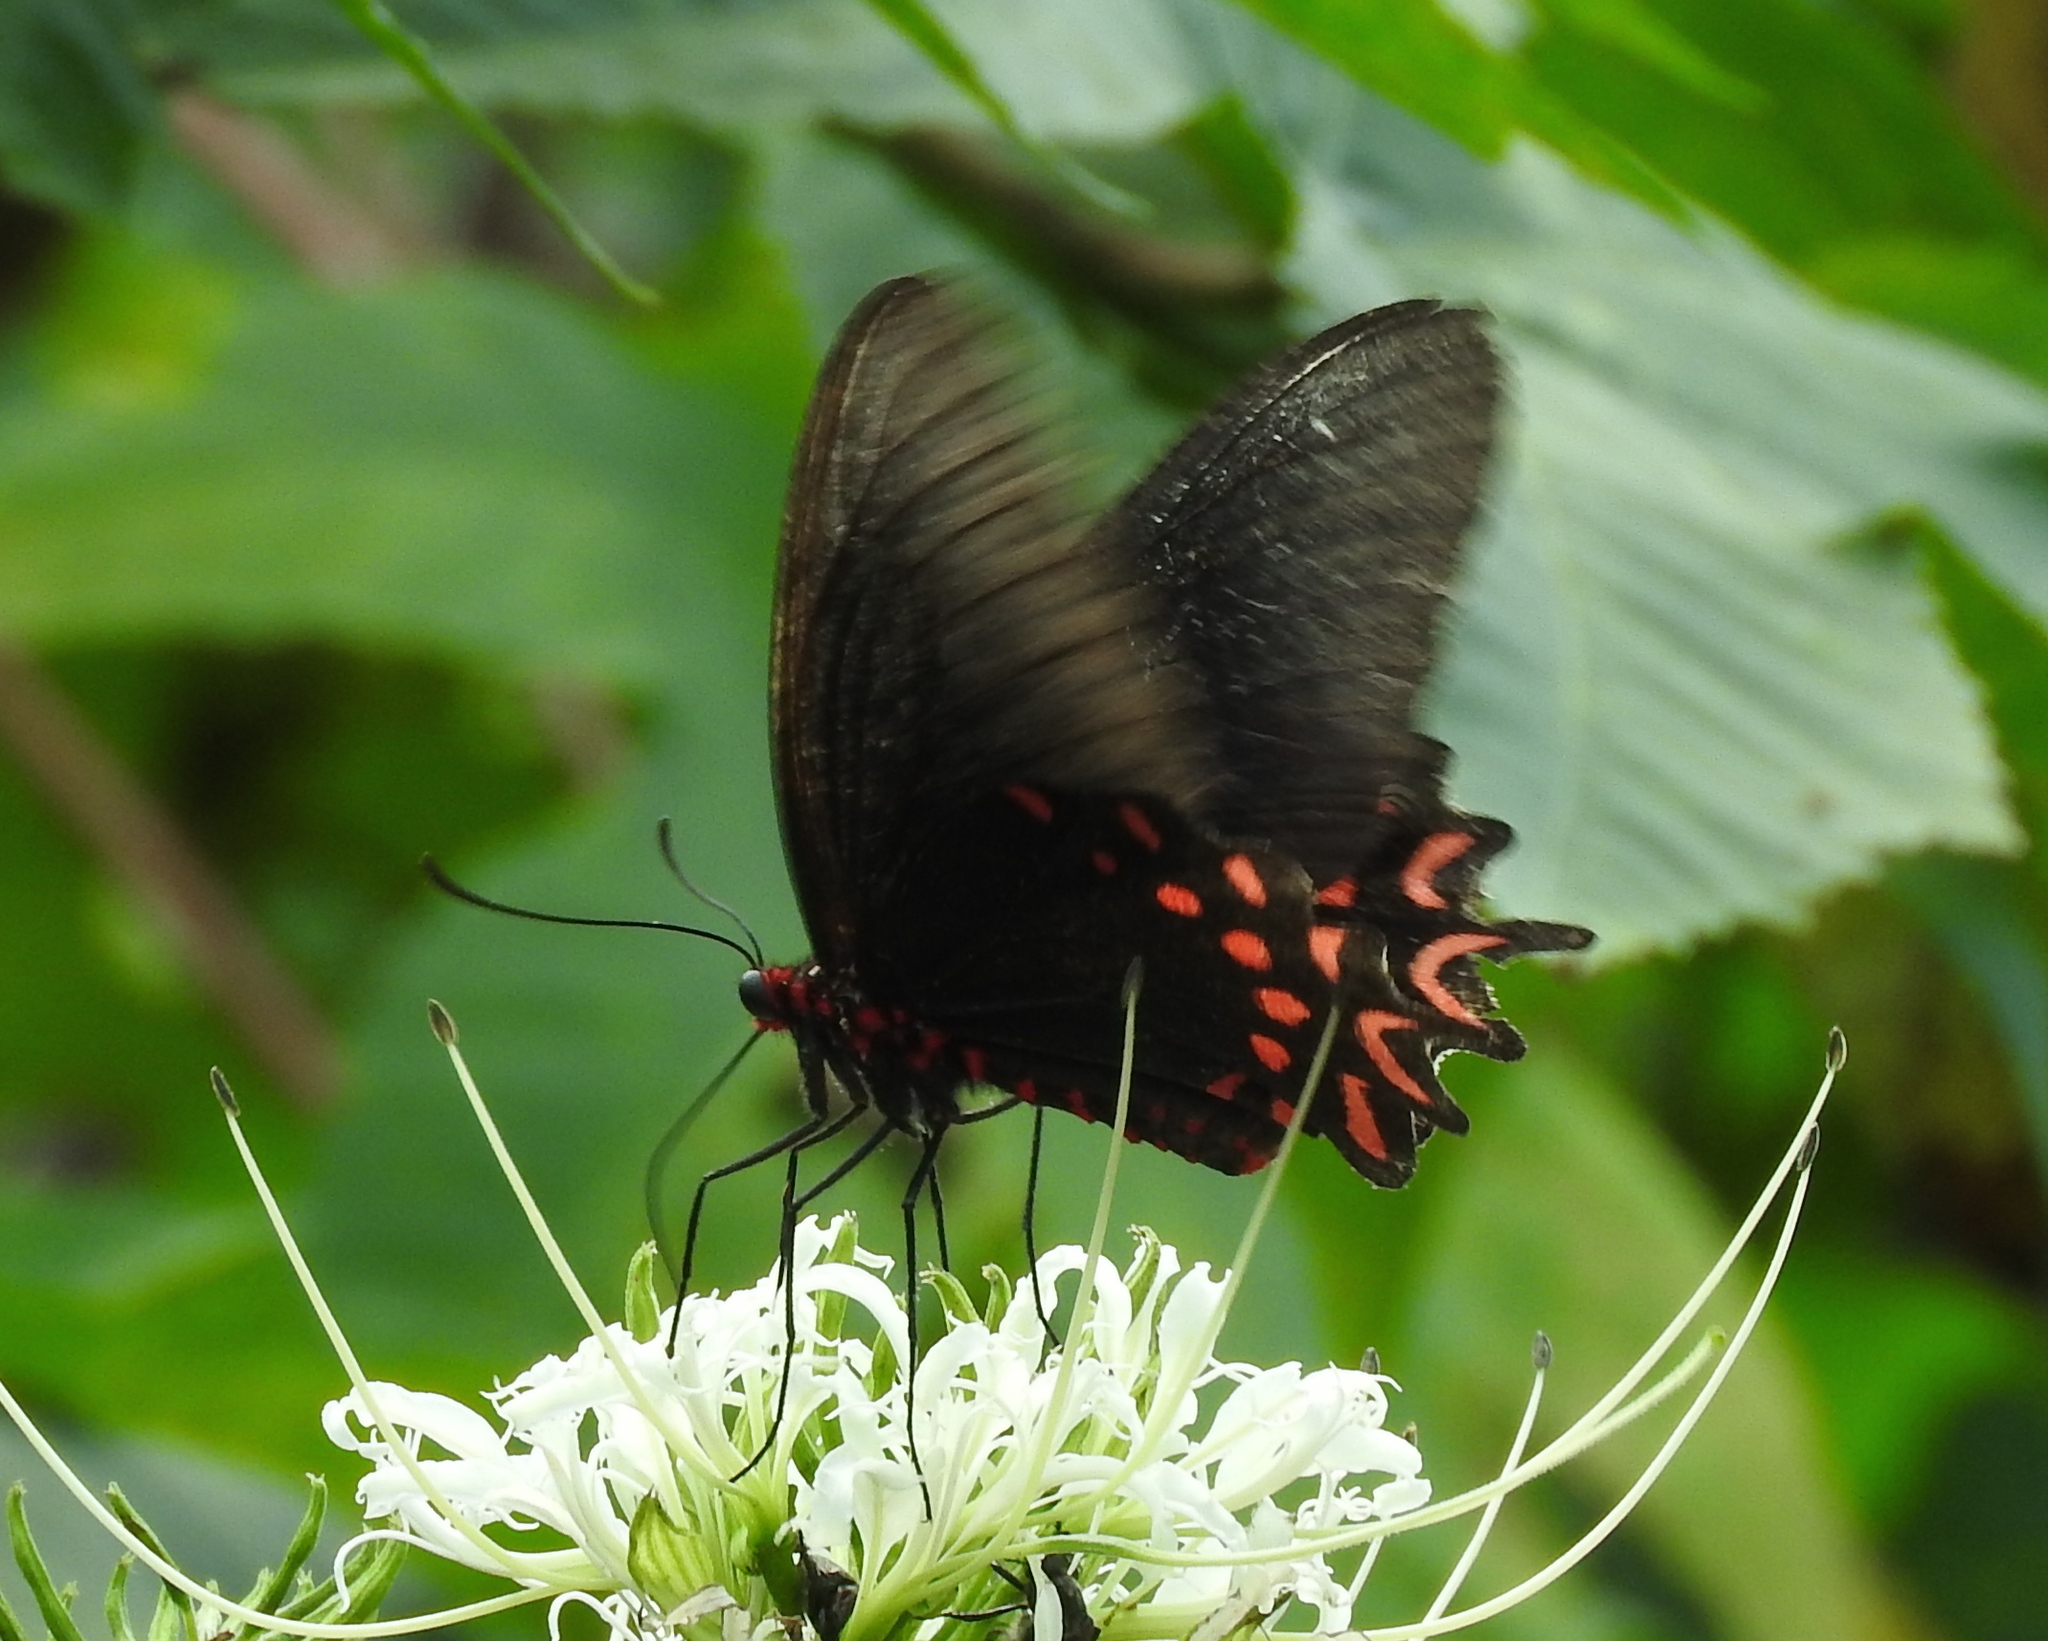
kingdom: Animalia
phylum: Arthropoda
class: Insecta
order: Lepidoptera
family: Papilionidae
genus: Parides
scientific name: Parides photinus
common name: Pink-spotted cattleheart
